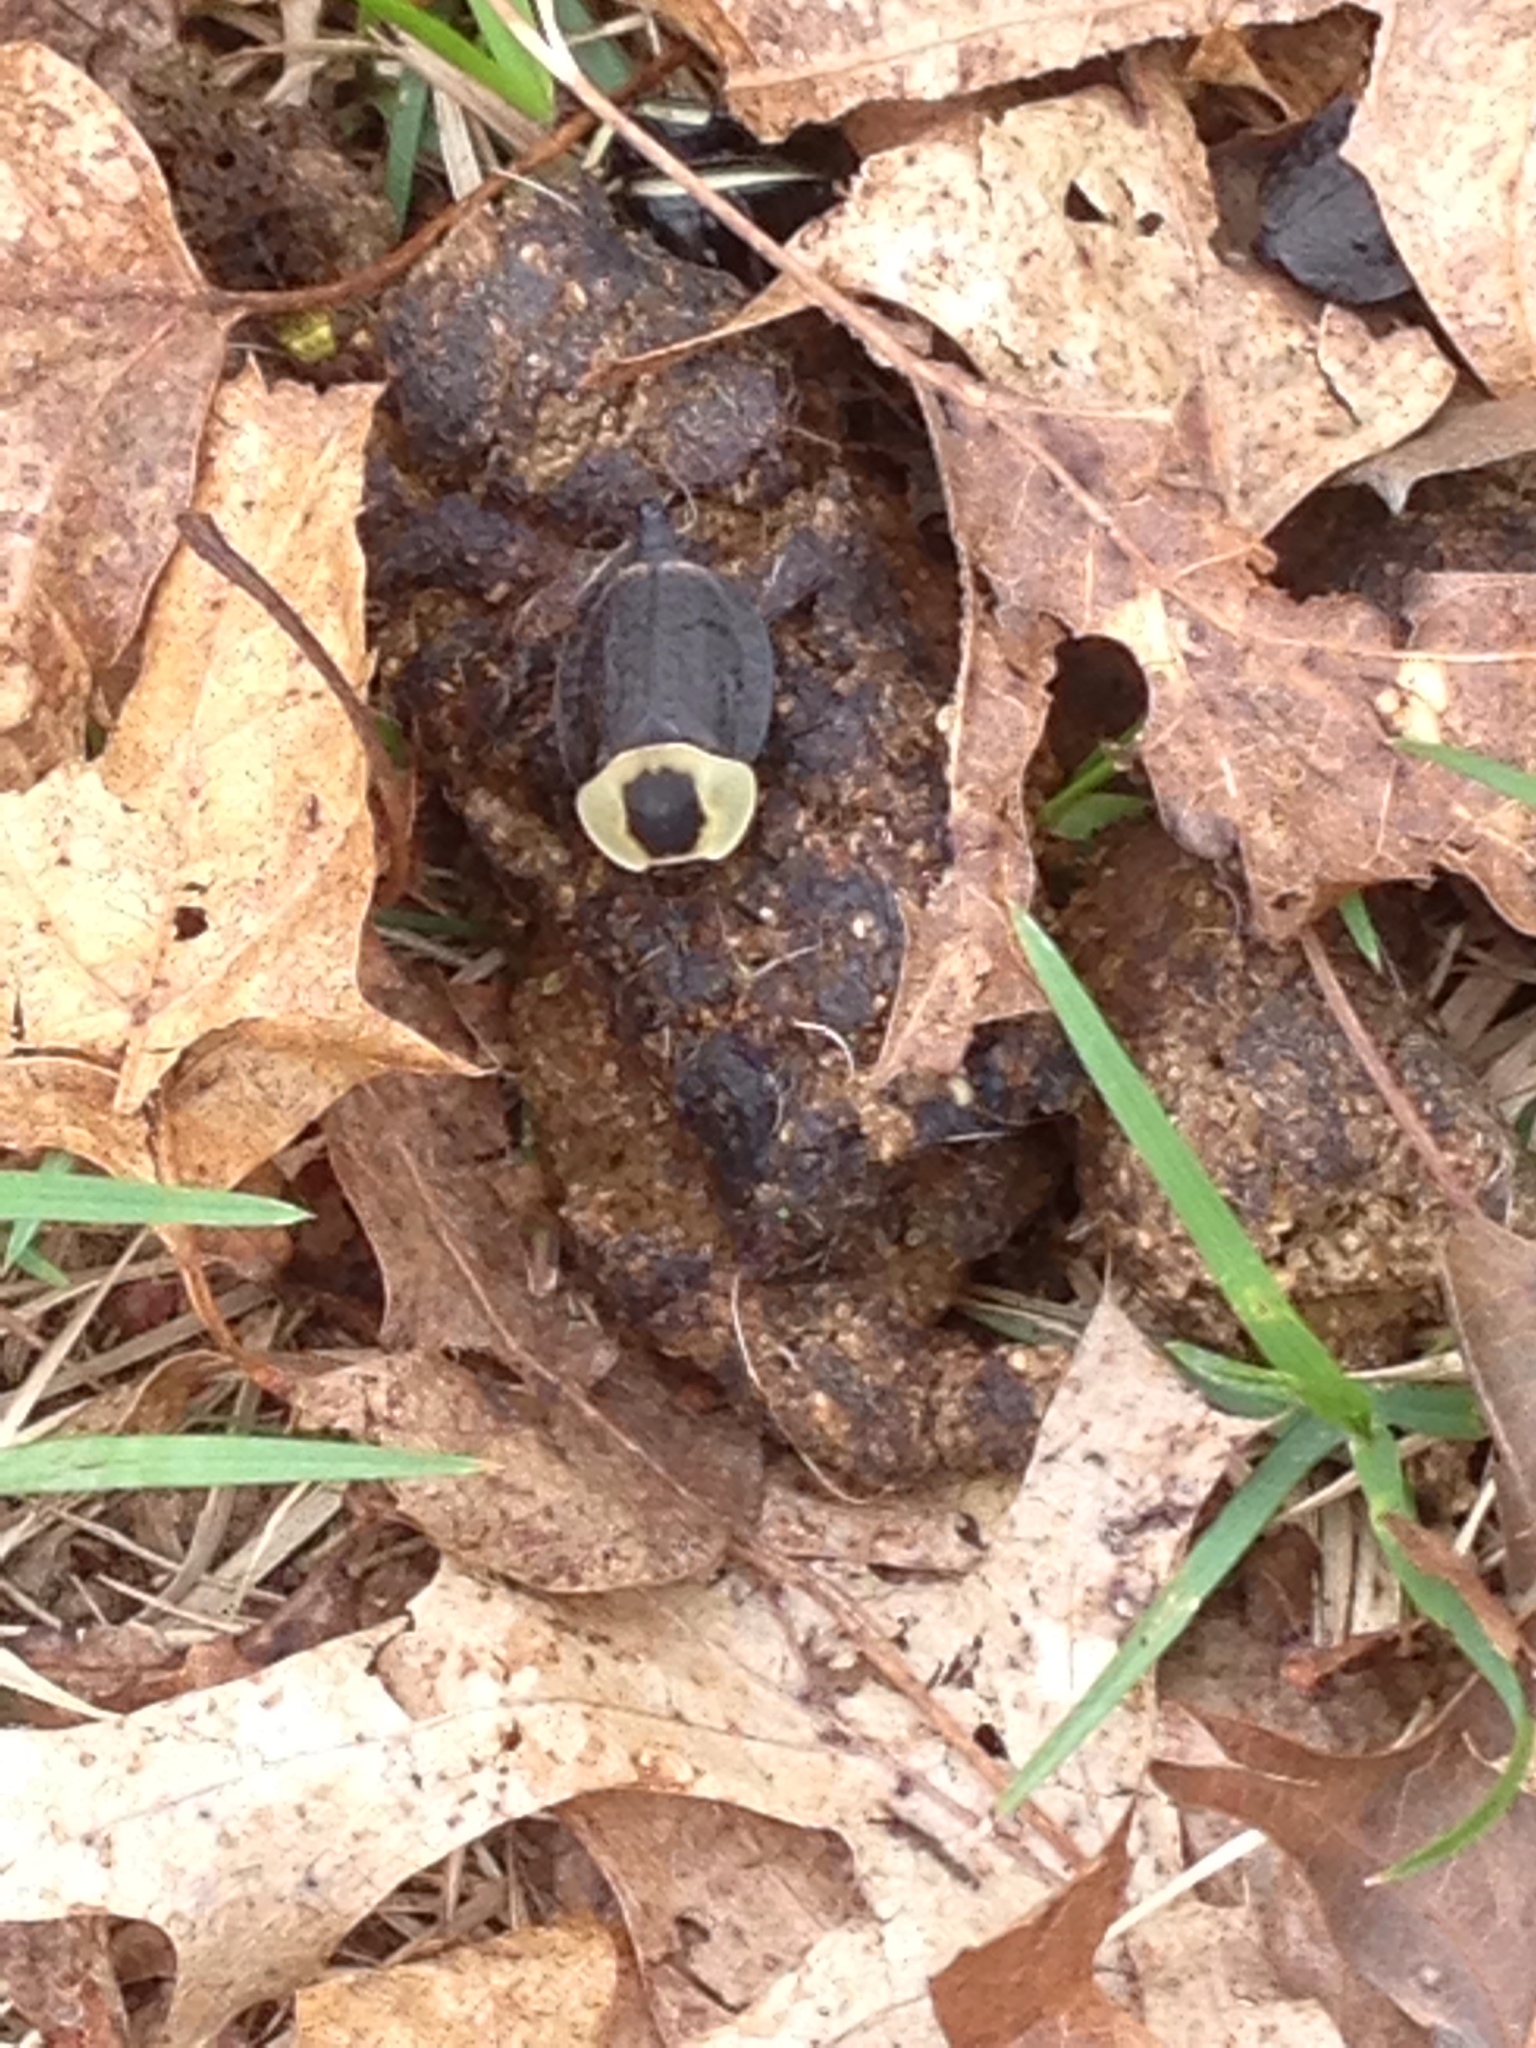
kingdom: Animalia
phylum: Arthropoda
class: Insecta
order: Coleoptera
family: Staphylinidae
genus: Necrophila
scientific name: Necrophila americana
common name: American carrion beetle
